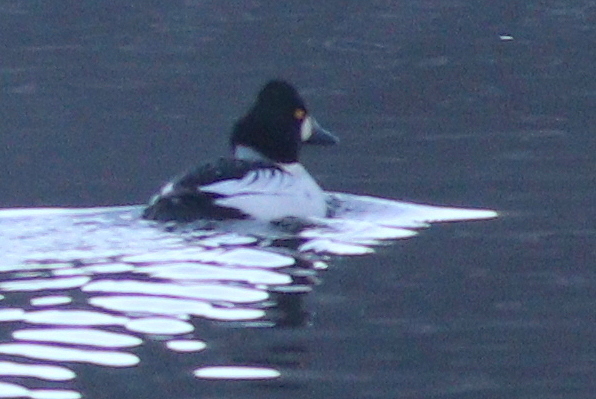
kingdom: Animalia
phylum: Chordata
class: Aves
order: Anseriformes
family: Anatidae
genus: Bucephala
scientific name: Bucephala clangula
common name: Common goldeneye
